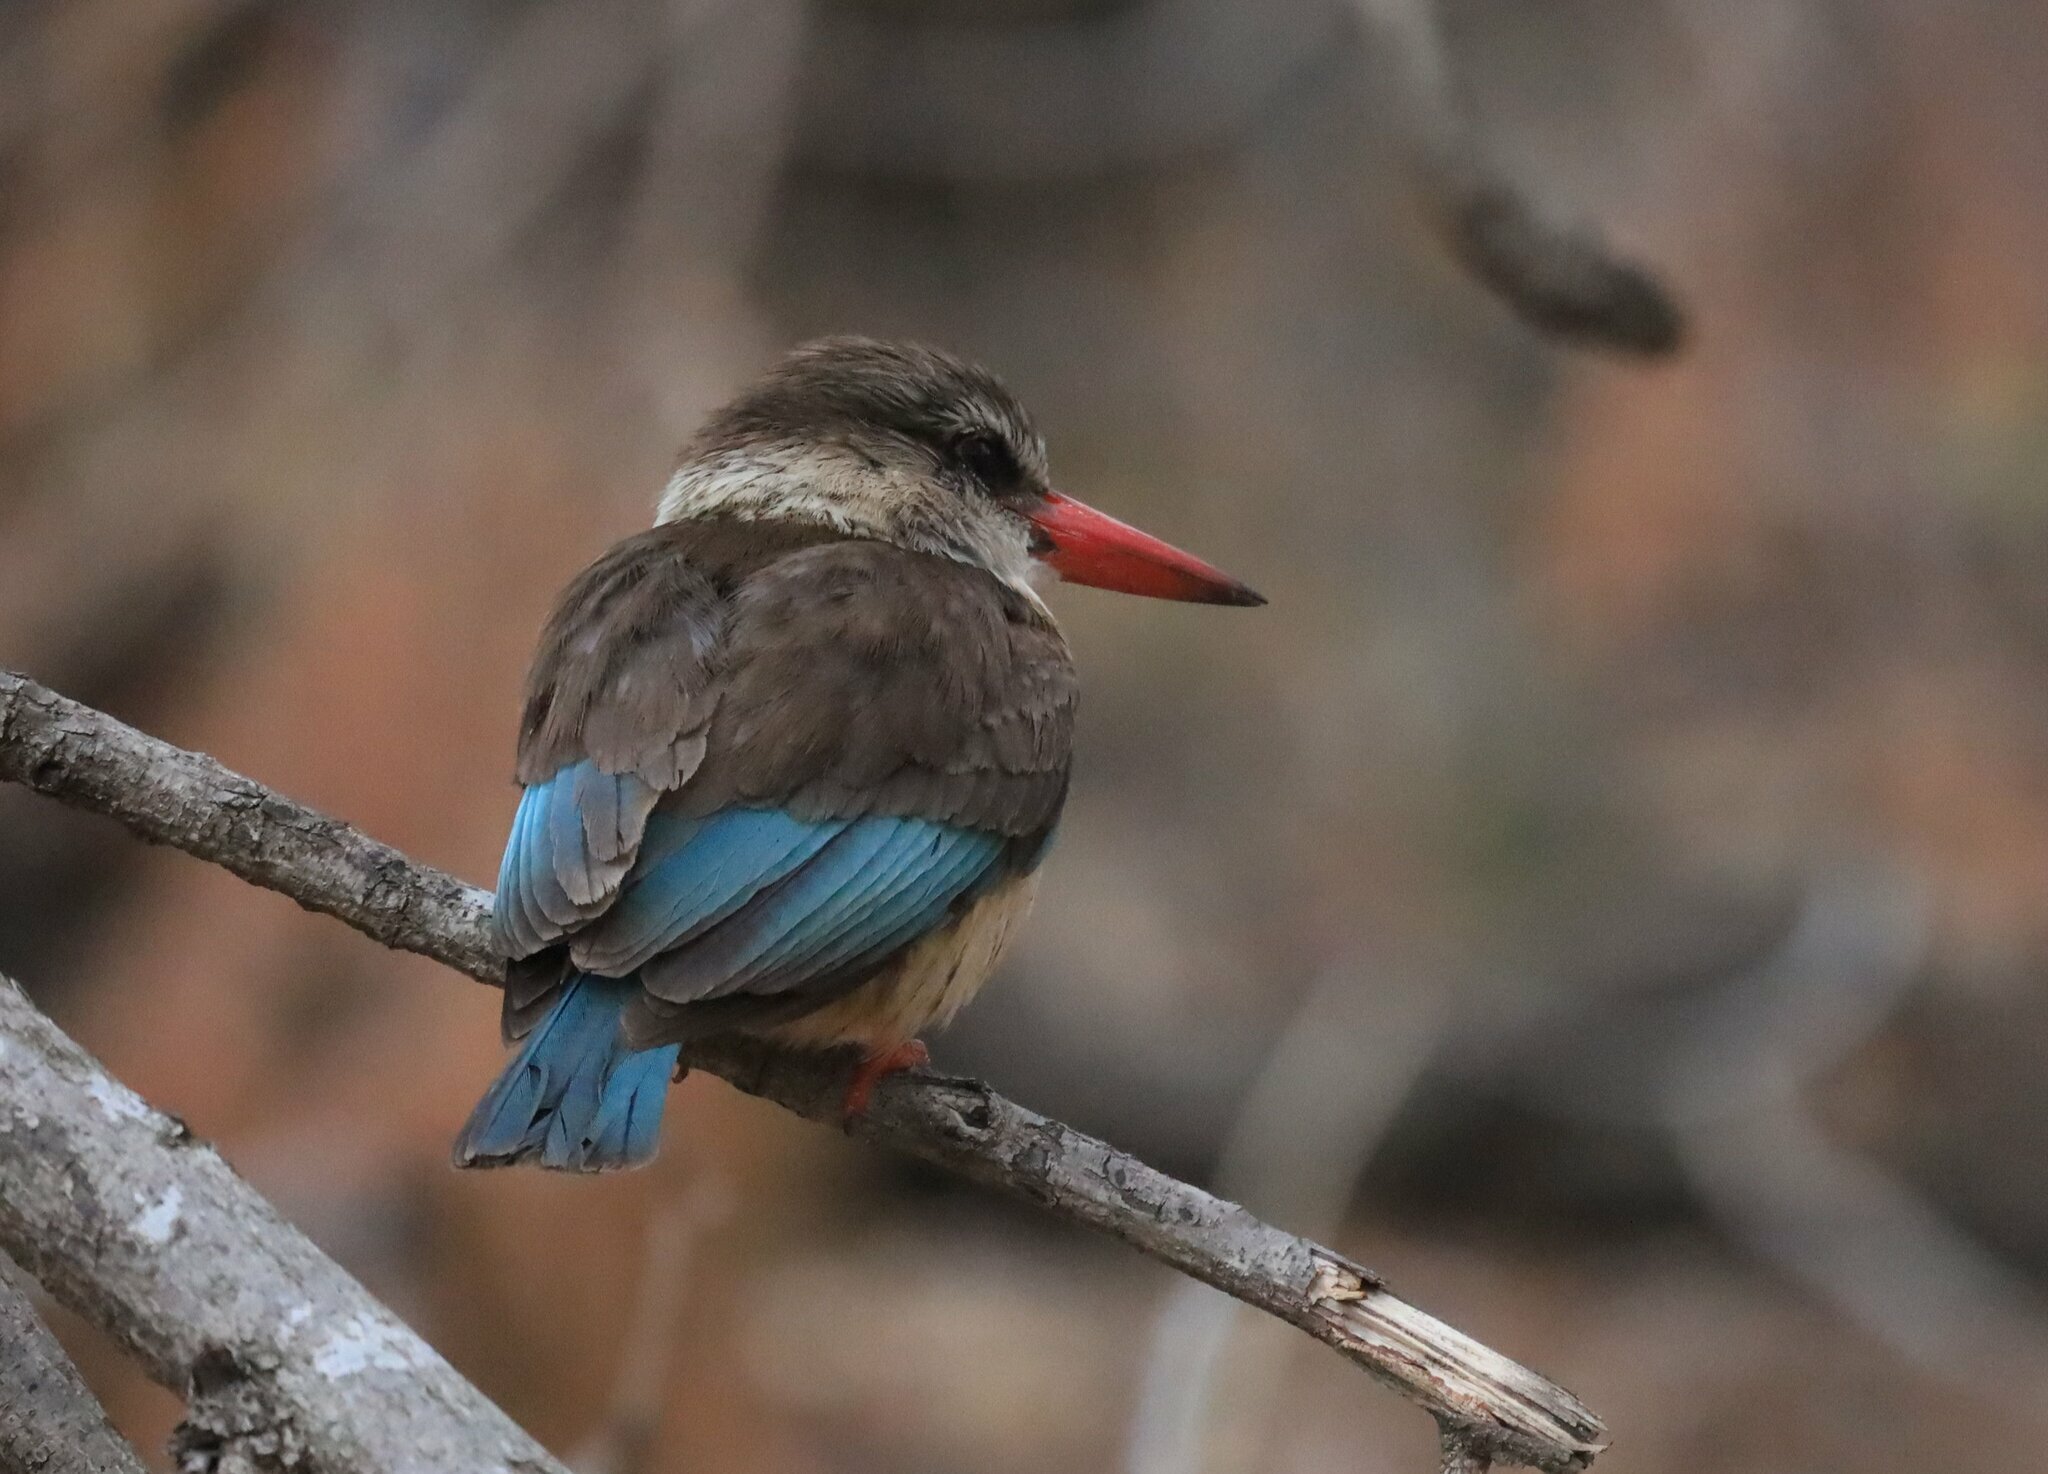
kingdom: Animalia
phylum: Chordata
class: Aves
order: Coraciiformes
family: Alcedinidae
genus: Halcyon
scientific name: Halcyon albiventris
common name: Brown-hooded kingfisher
